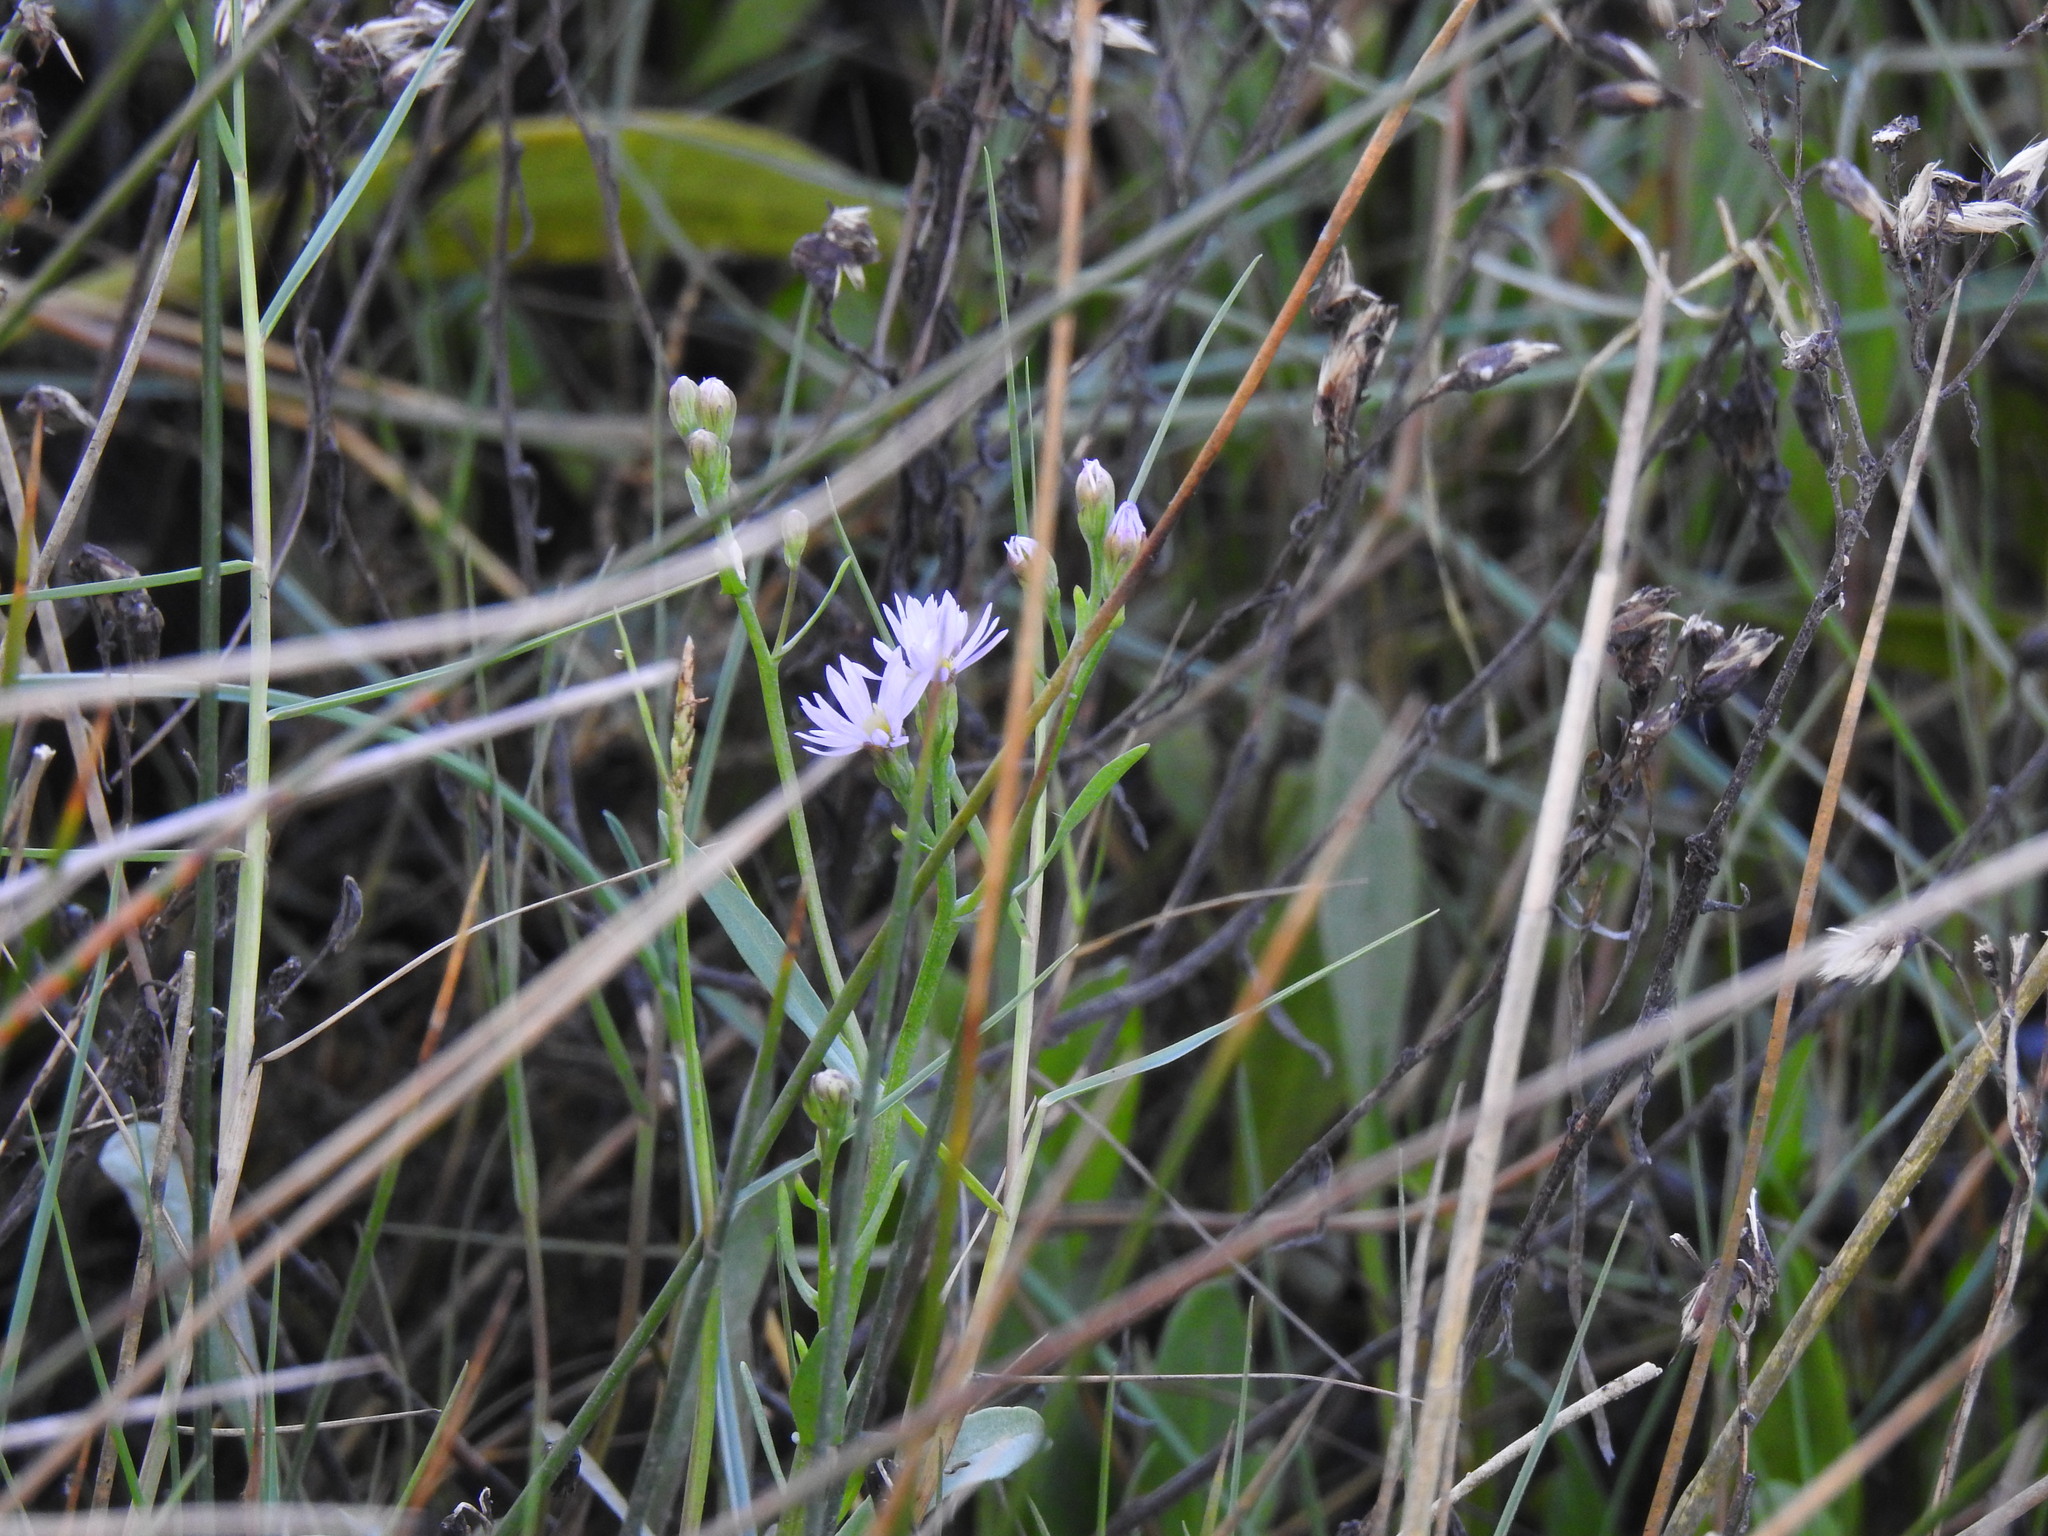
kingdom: Plantae
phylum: Tracheophyta
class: Magnoliopsida
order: Asterales
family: Asteraceae
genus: Tripolium
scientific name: Tripolium pannonicum
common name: Sea aster
